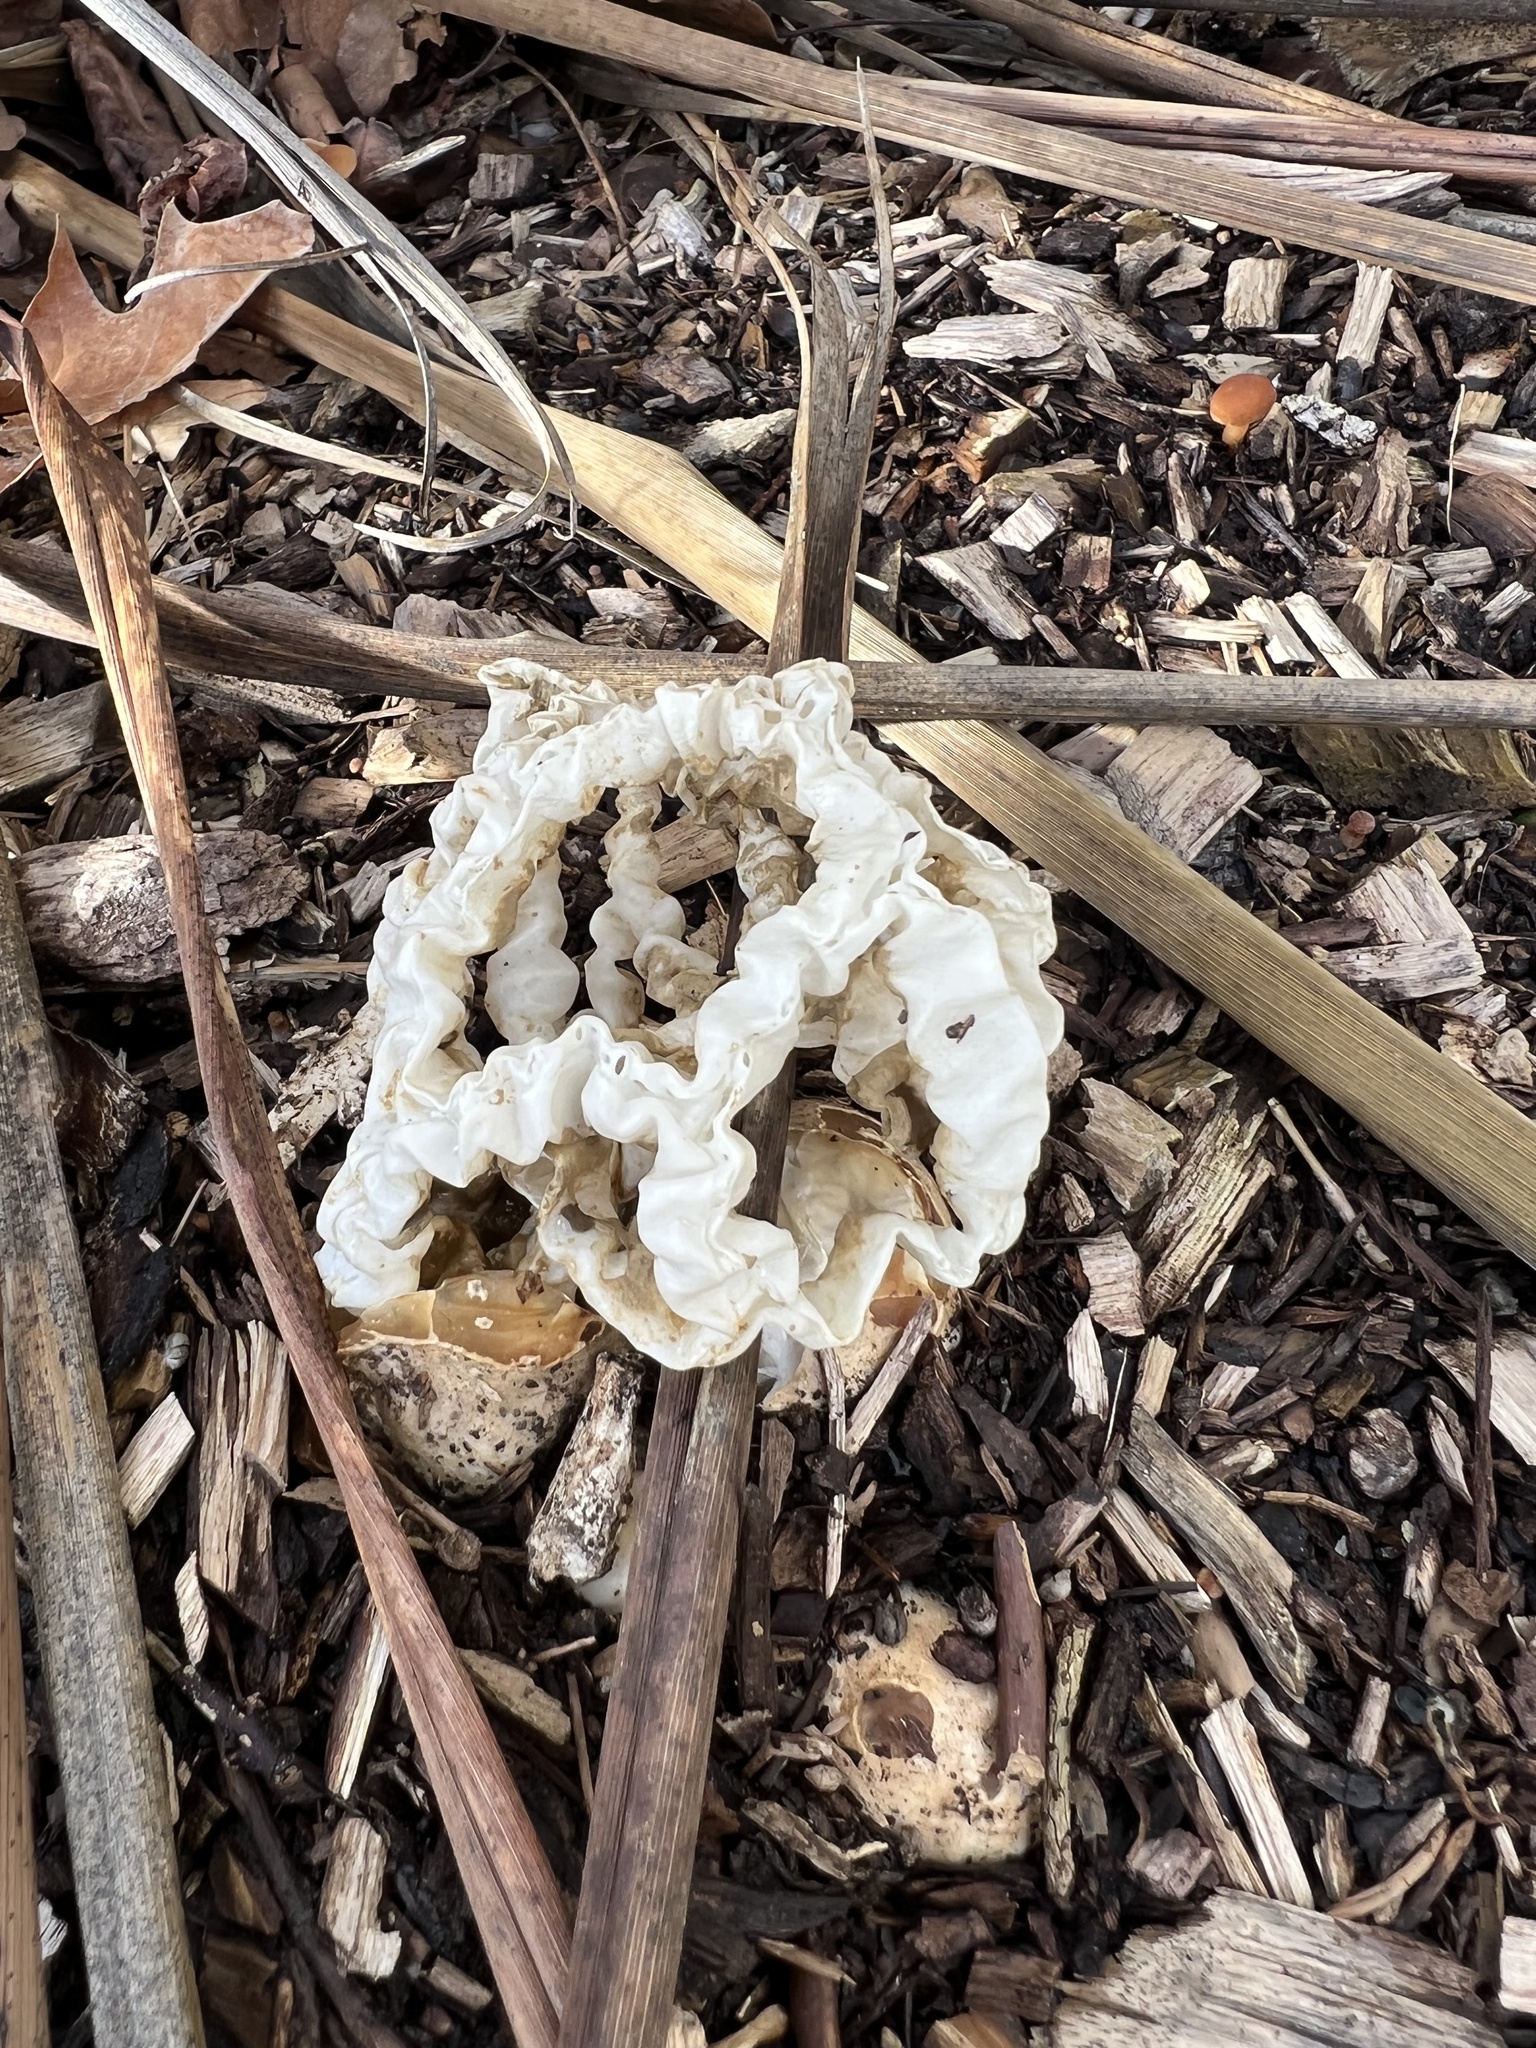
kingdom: Fungi
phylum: Basidiomycota
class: Agaricomycetes
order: Phallales
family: Phallaceae
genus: Ileodictyon
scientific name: Ileodictyon cibarium
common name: Basket fungus
